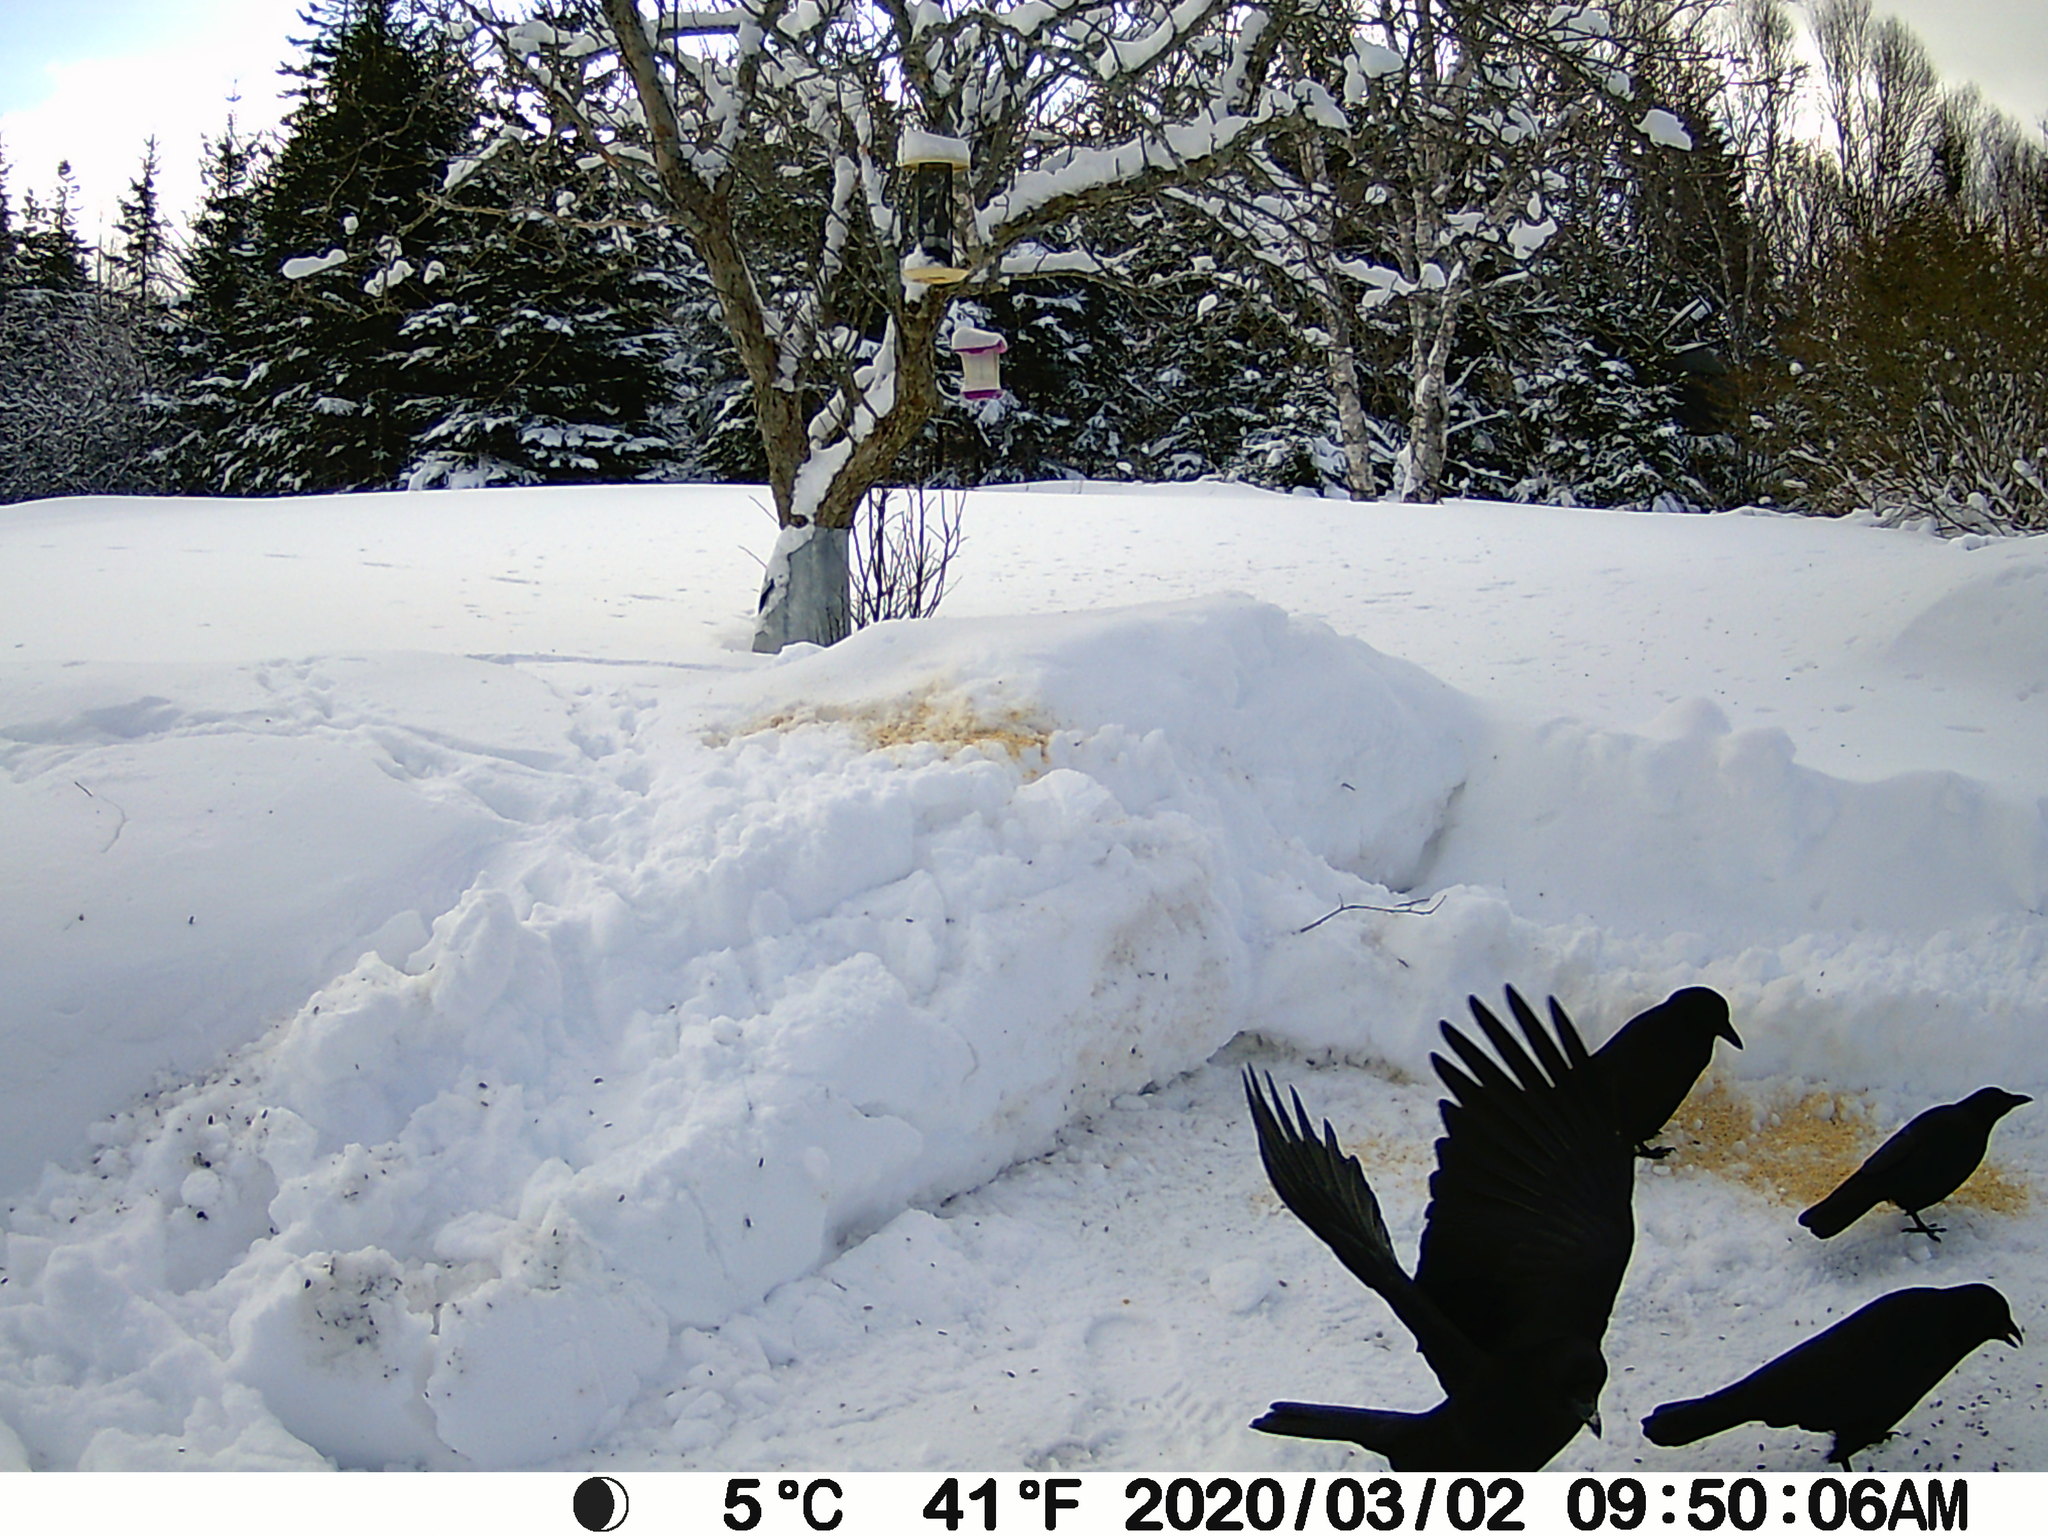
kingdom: Animalia
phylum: Chordata
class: Aves
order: Passeriformes
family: Corvidae
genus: Corvus
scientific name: Corvus brachyrhynchos
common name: American crow
